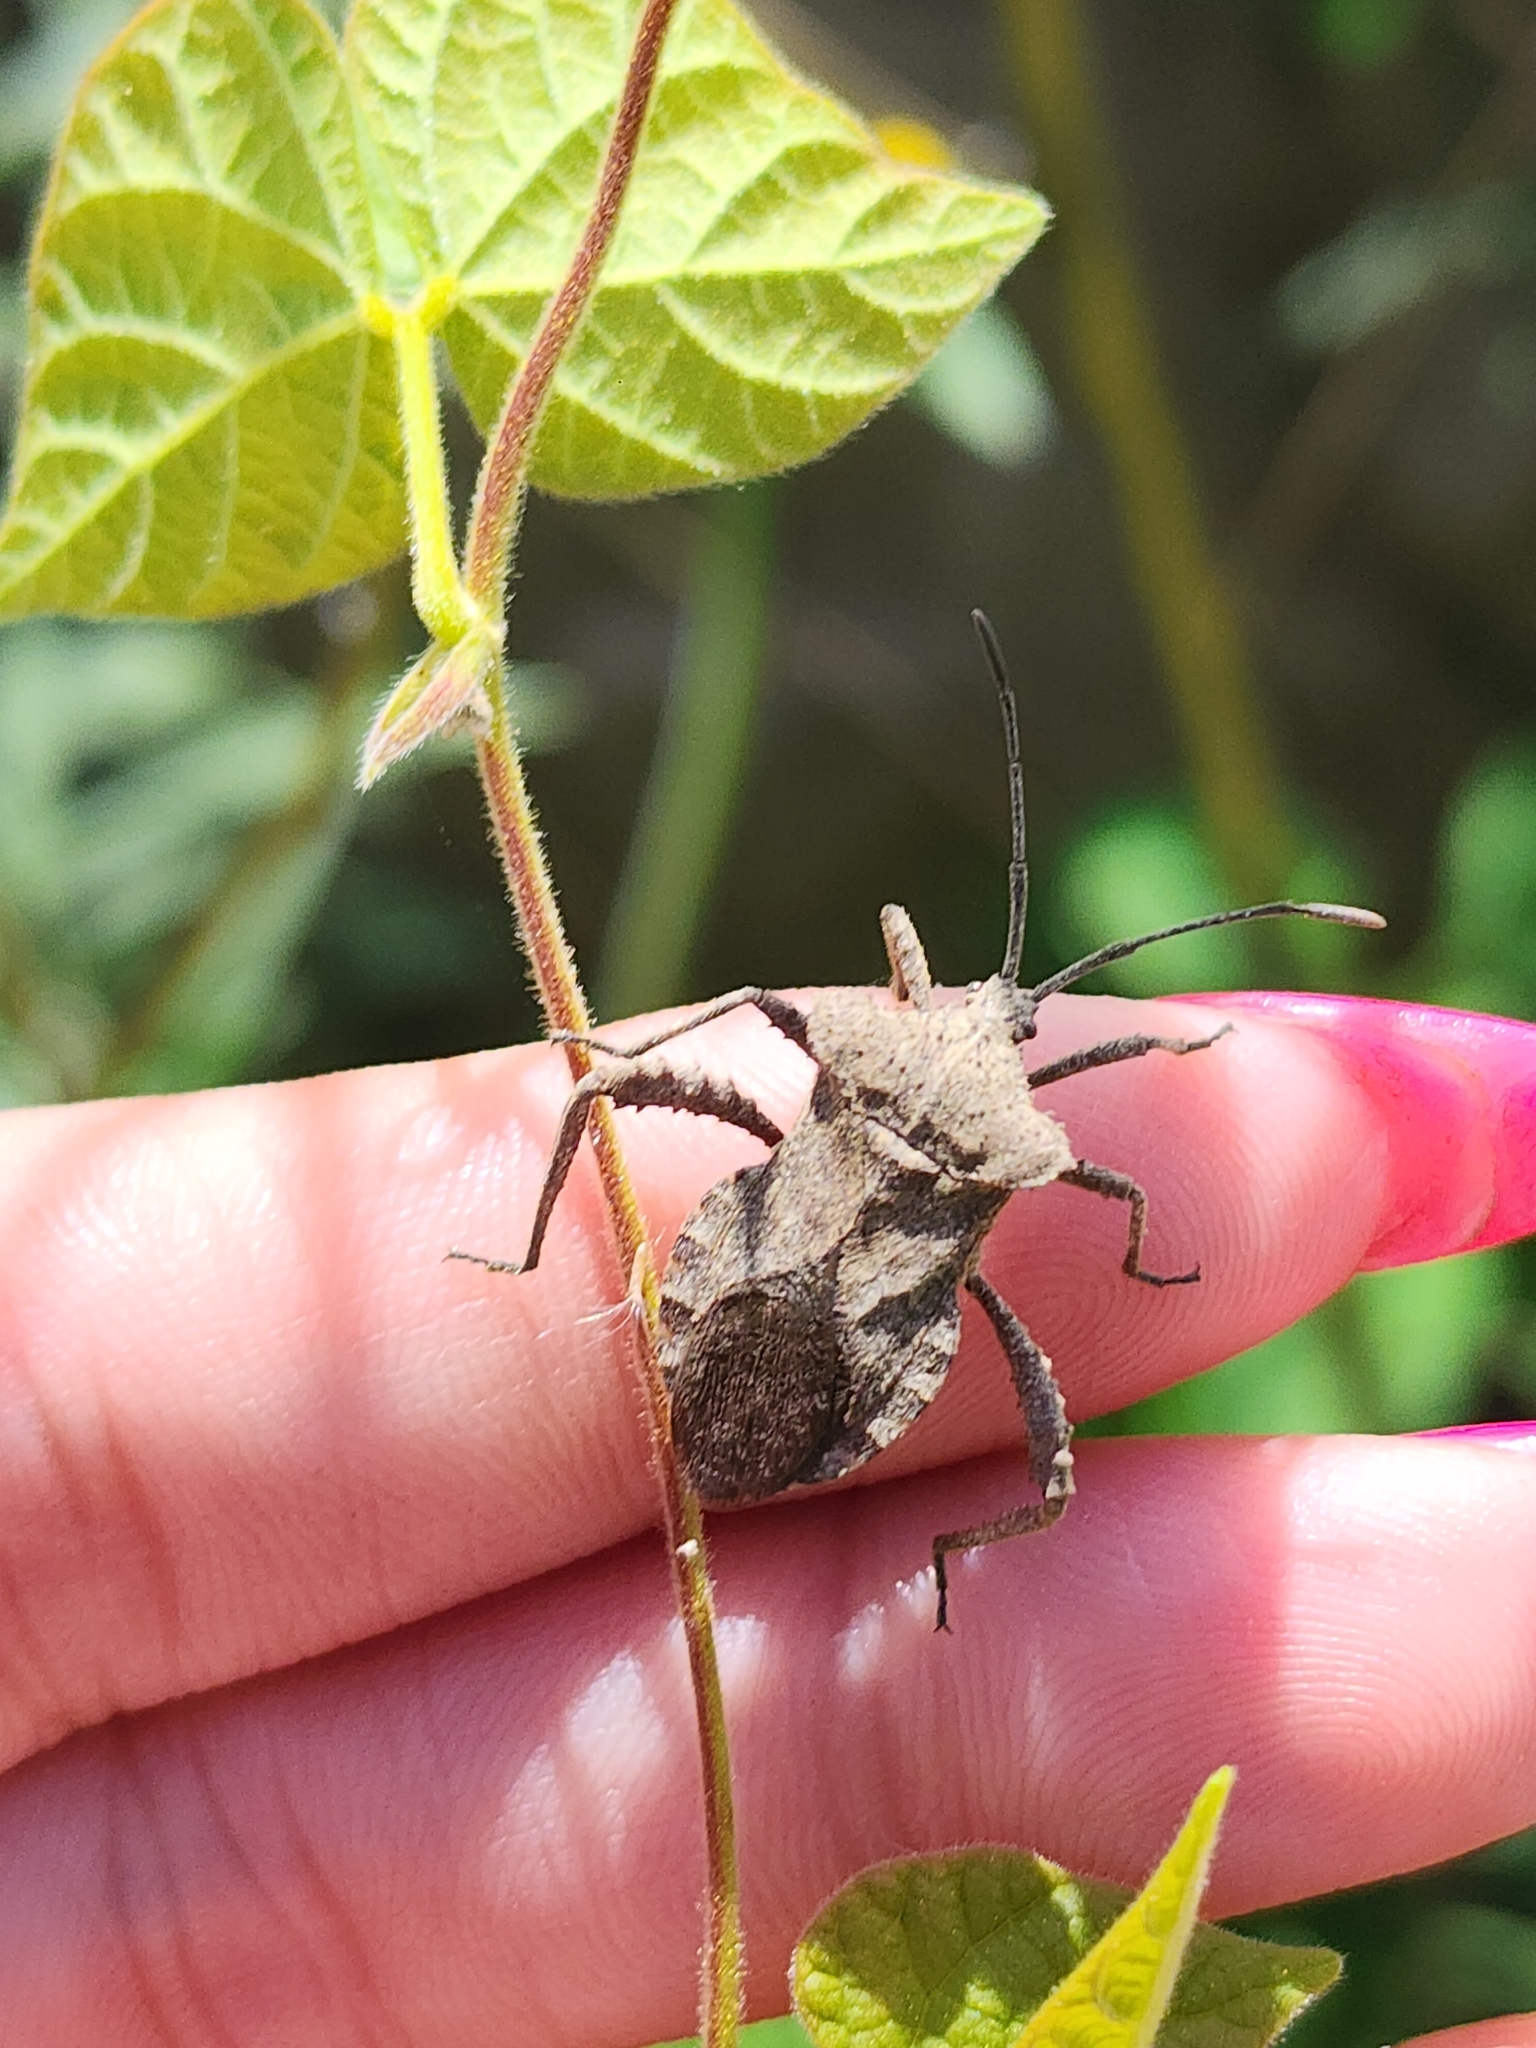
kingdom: Animalia
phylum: Arthropoda
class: Insecta
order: Hemiptera
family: Coreidae
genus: Camptischium
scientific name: Camptischium clavipes
